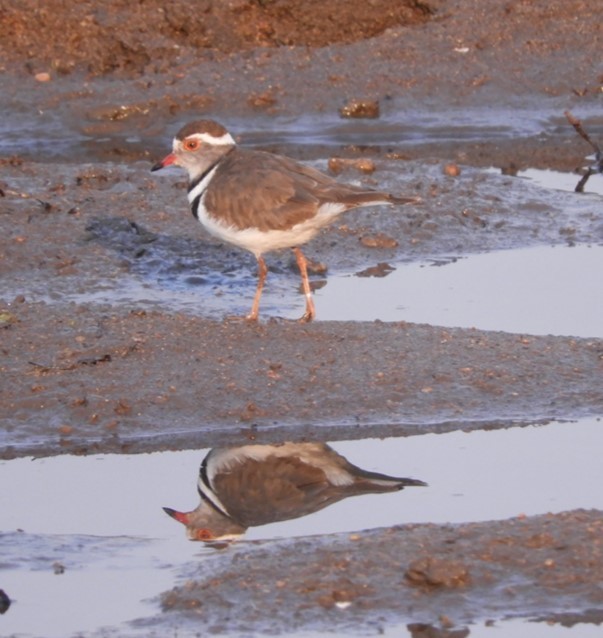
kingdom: Animalia
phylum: Chordata
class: Aves
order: Charadriiformes
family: Charadriidae
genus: Charadrius
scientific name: Charadrius tricollaris
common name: Three-banded plover
